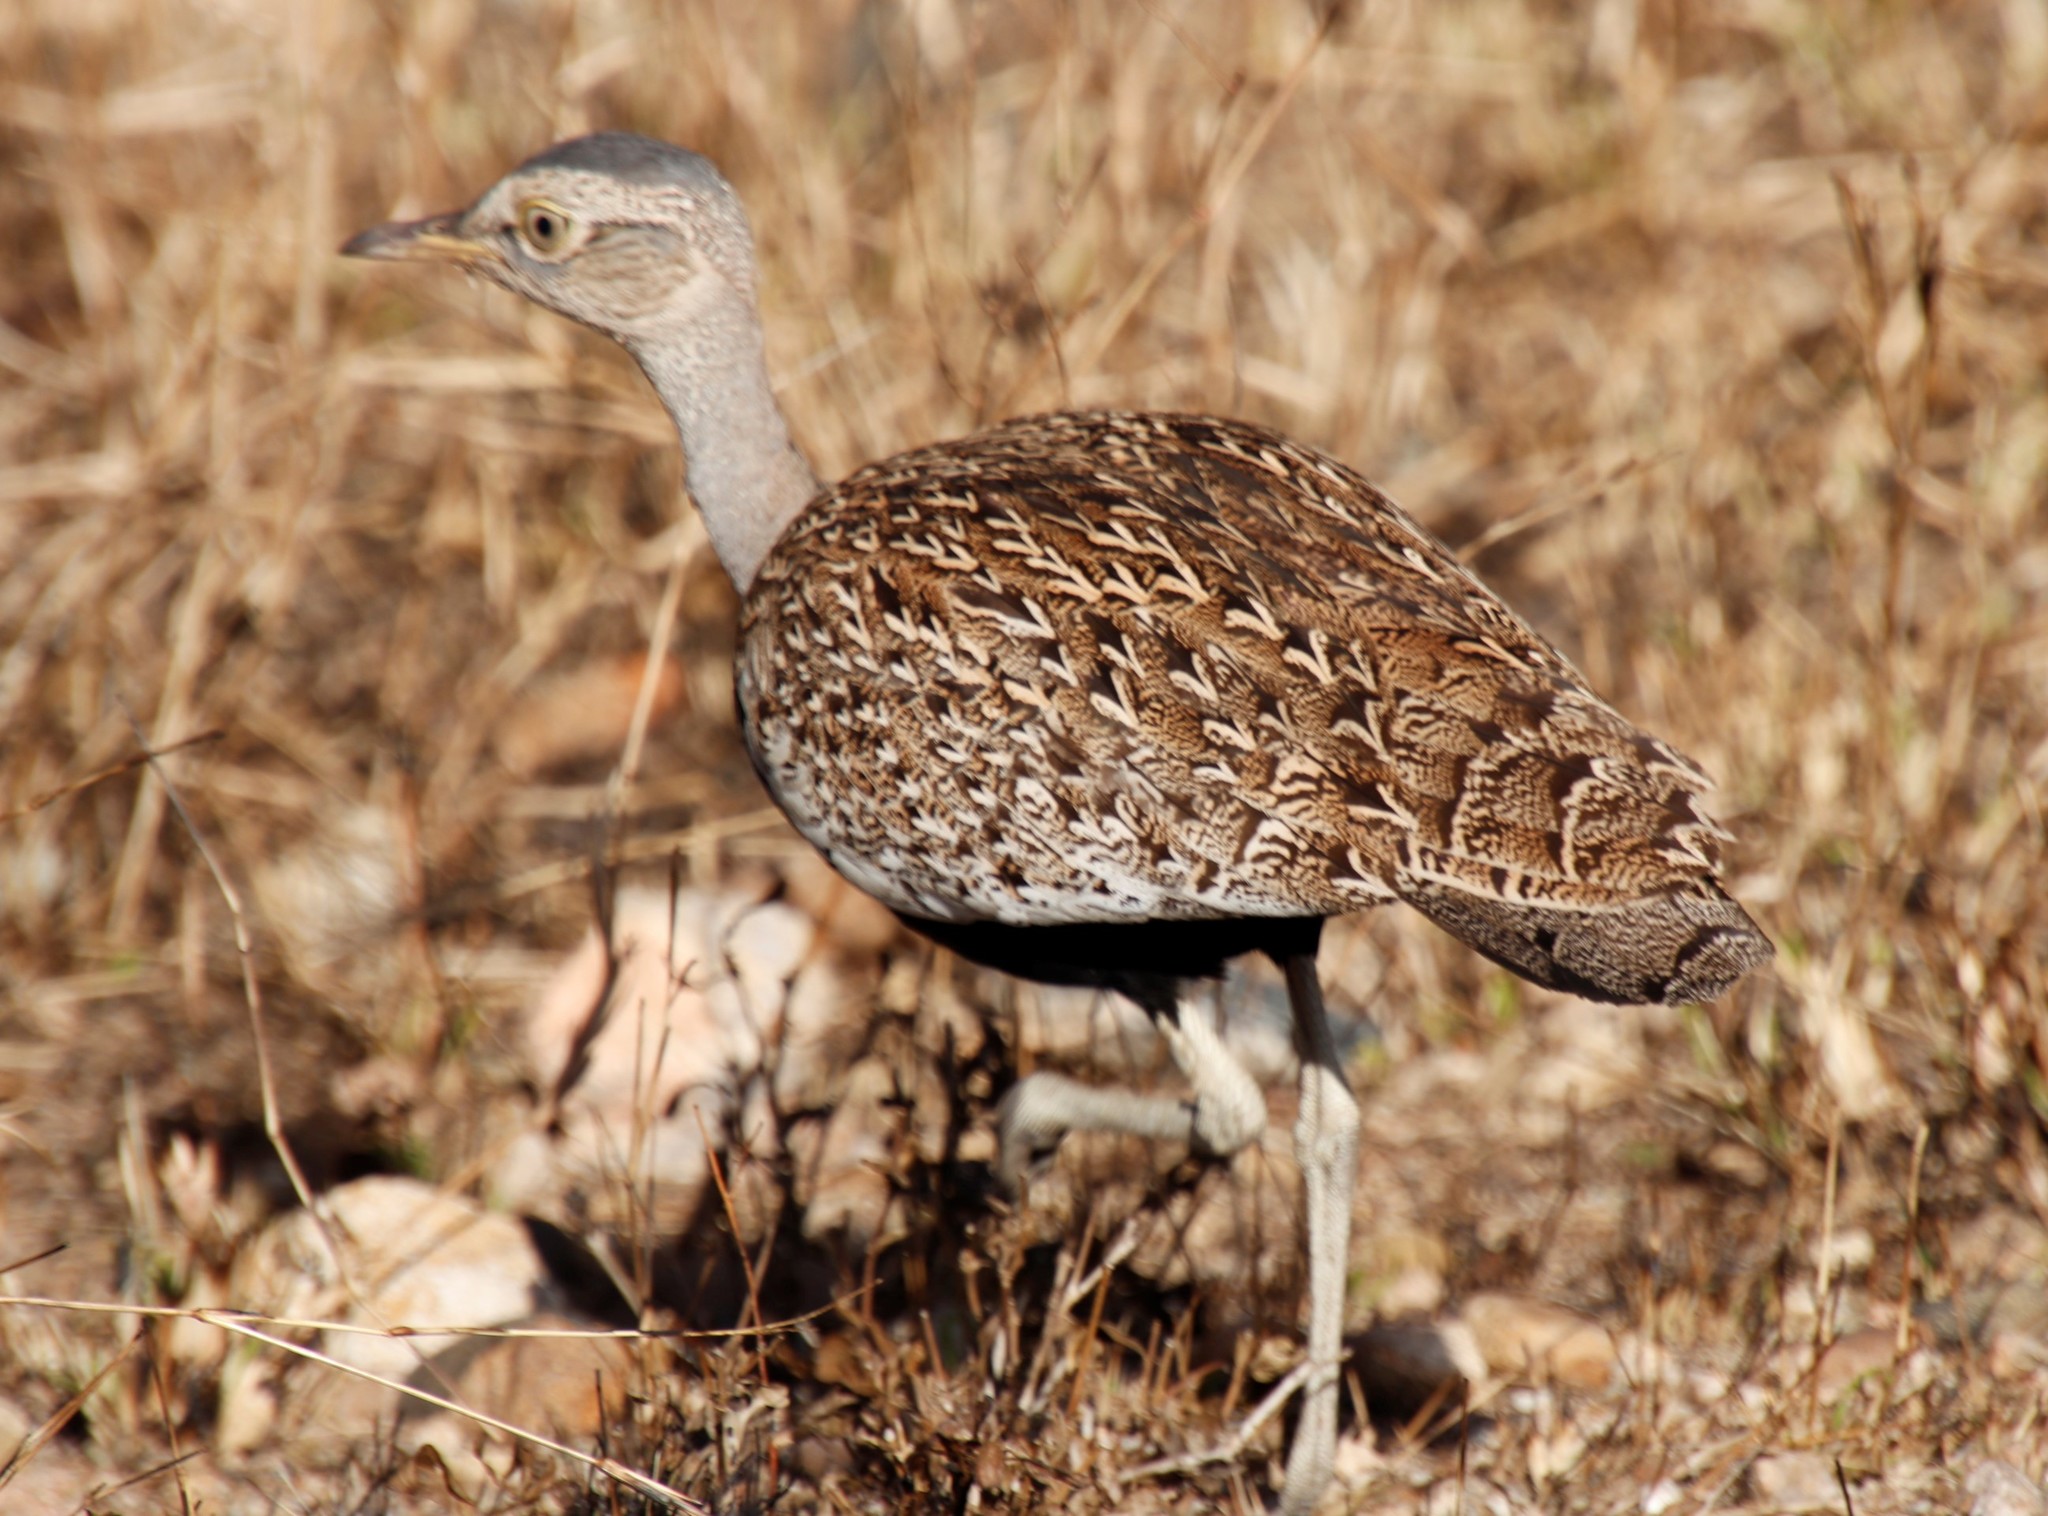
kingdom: Animalia
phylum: Chordata
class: Aves
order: Otidiformes
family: Otididae
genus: Lophotis
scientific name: Lophotis ruficrista
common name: Red-crested korhaan
